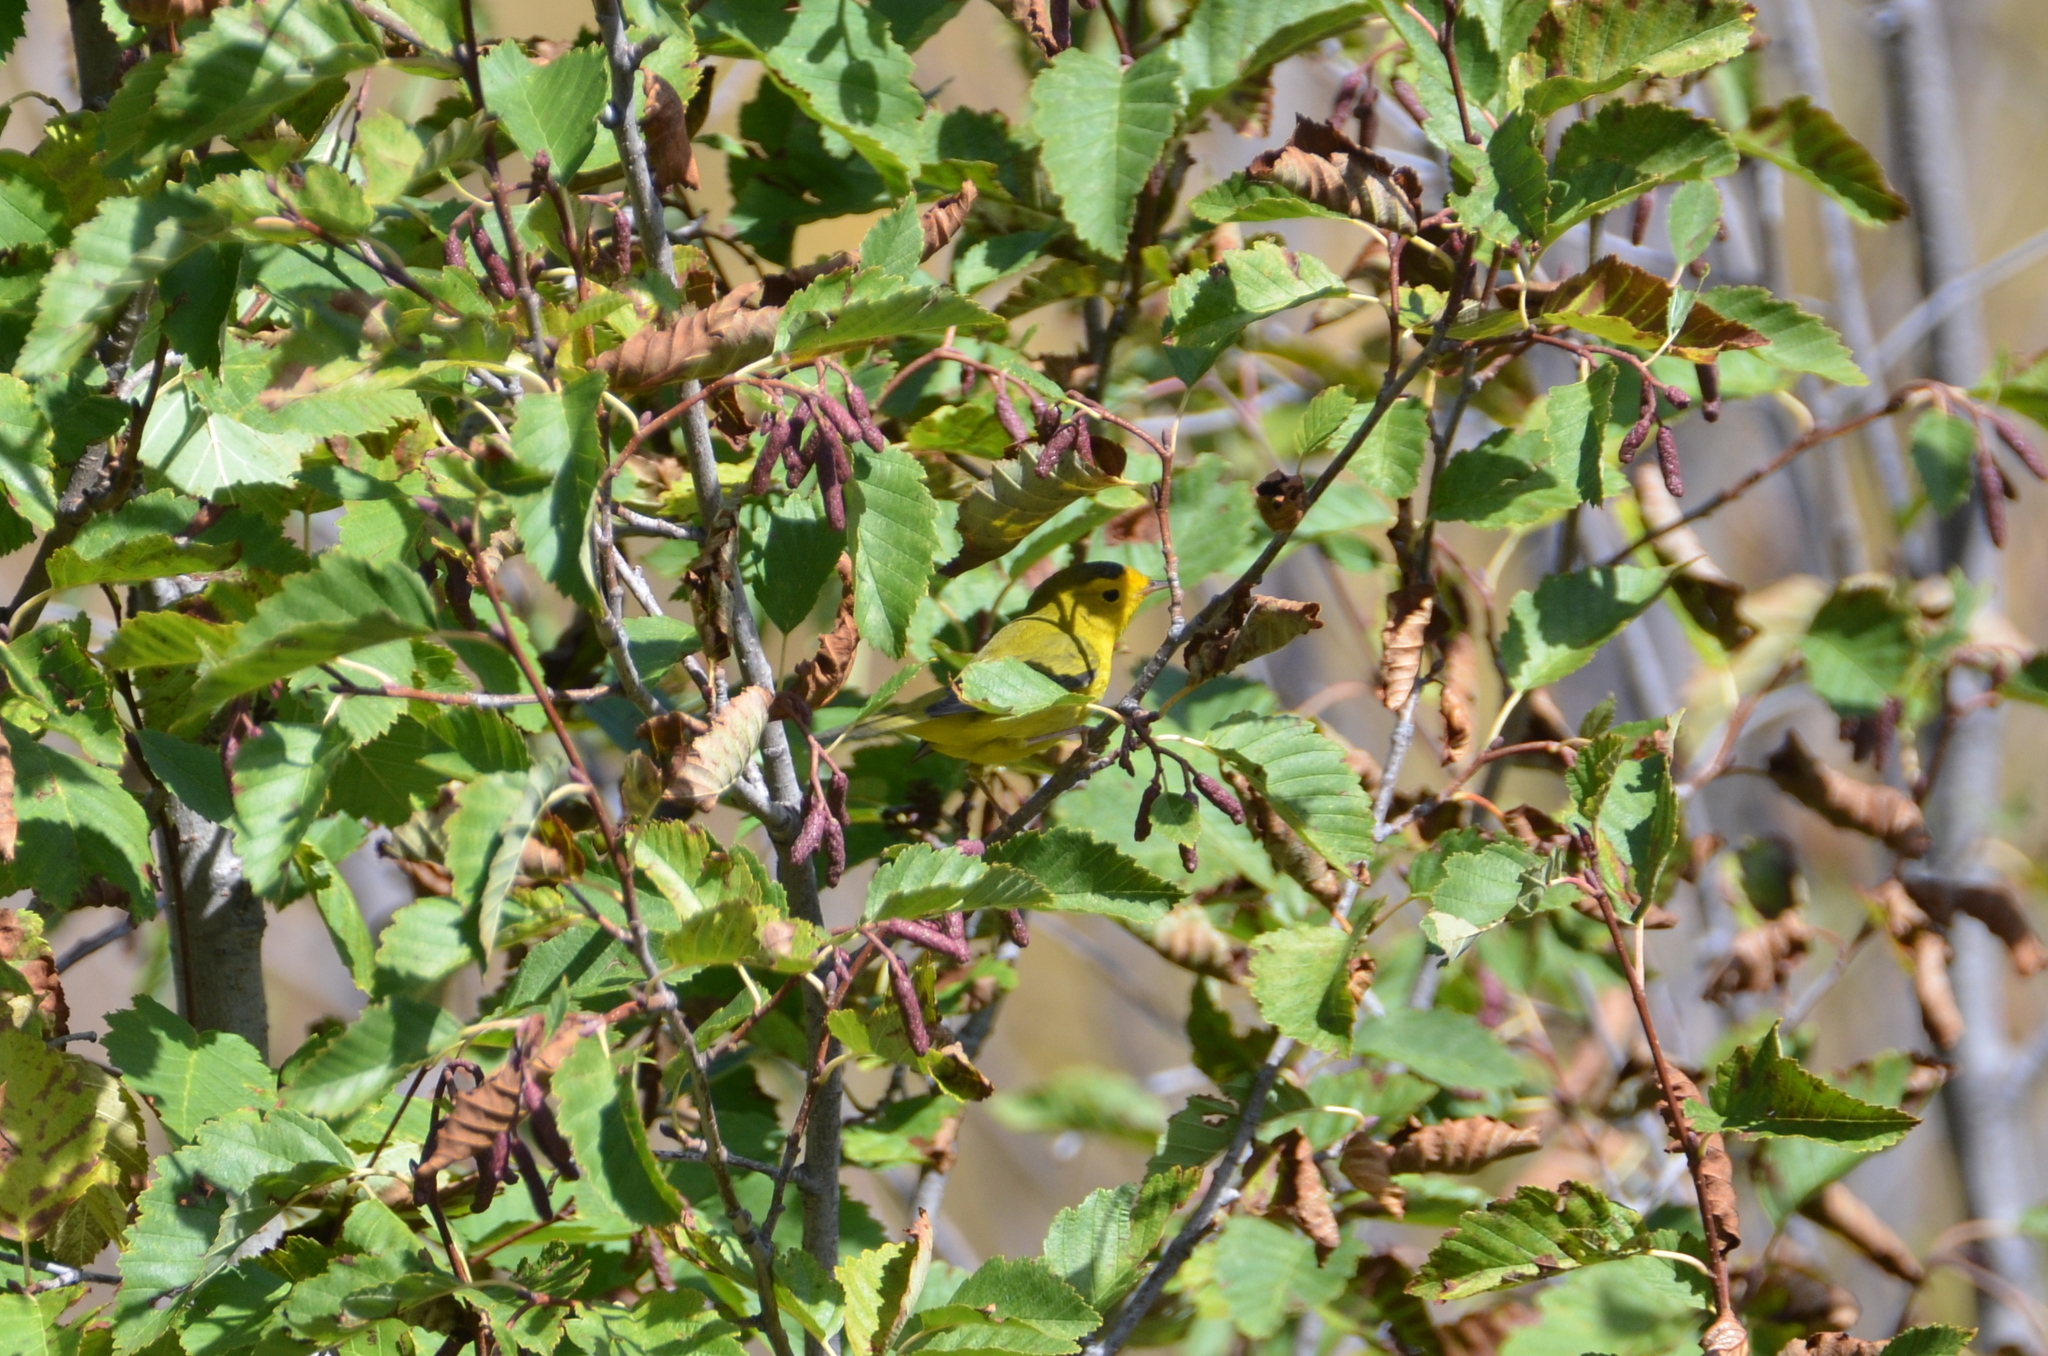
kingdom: Animalia
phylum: Chordata
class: Aves
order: Passeriformes
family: Parulidae
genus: Cardellina
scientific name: Cardellina pusilla
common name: Wilson's warbler
